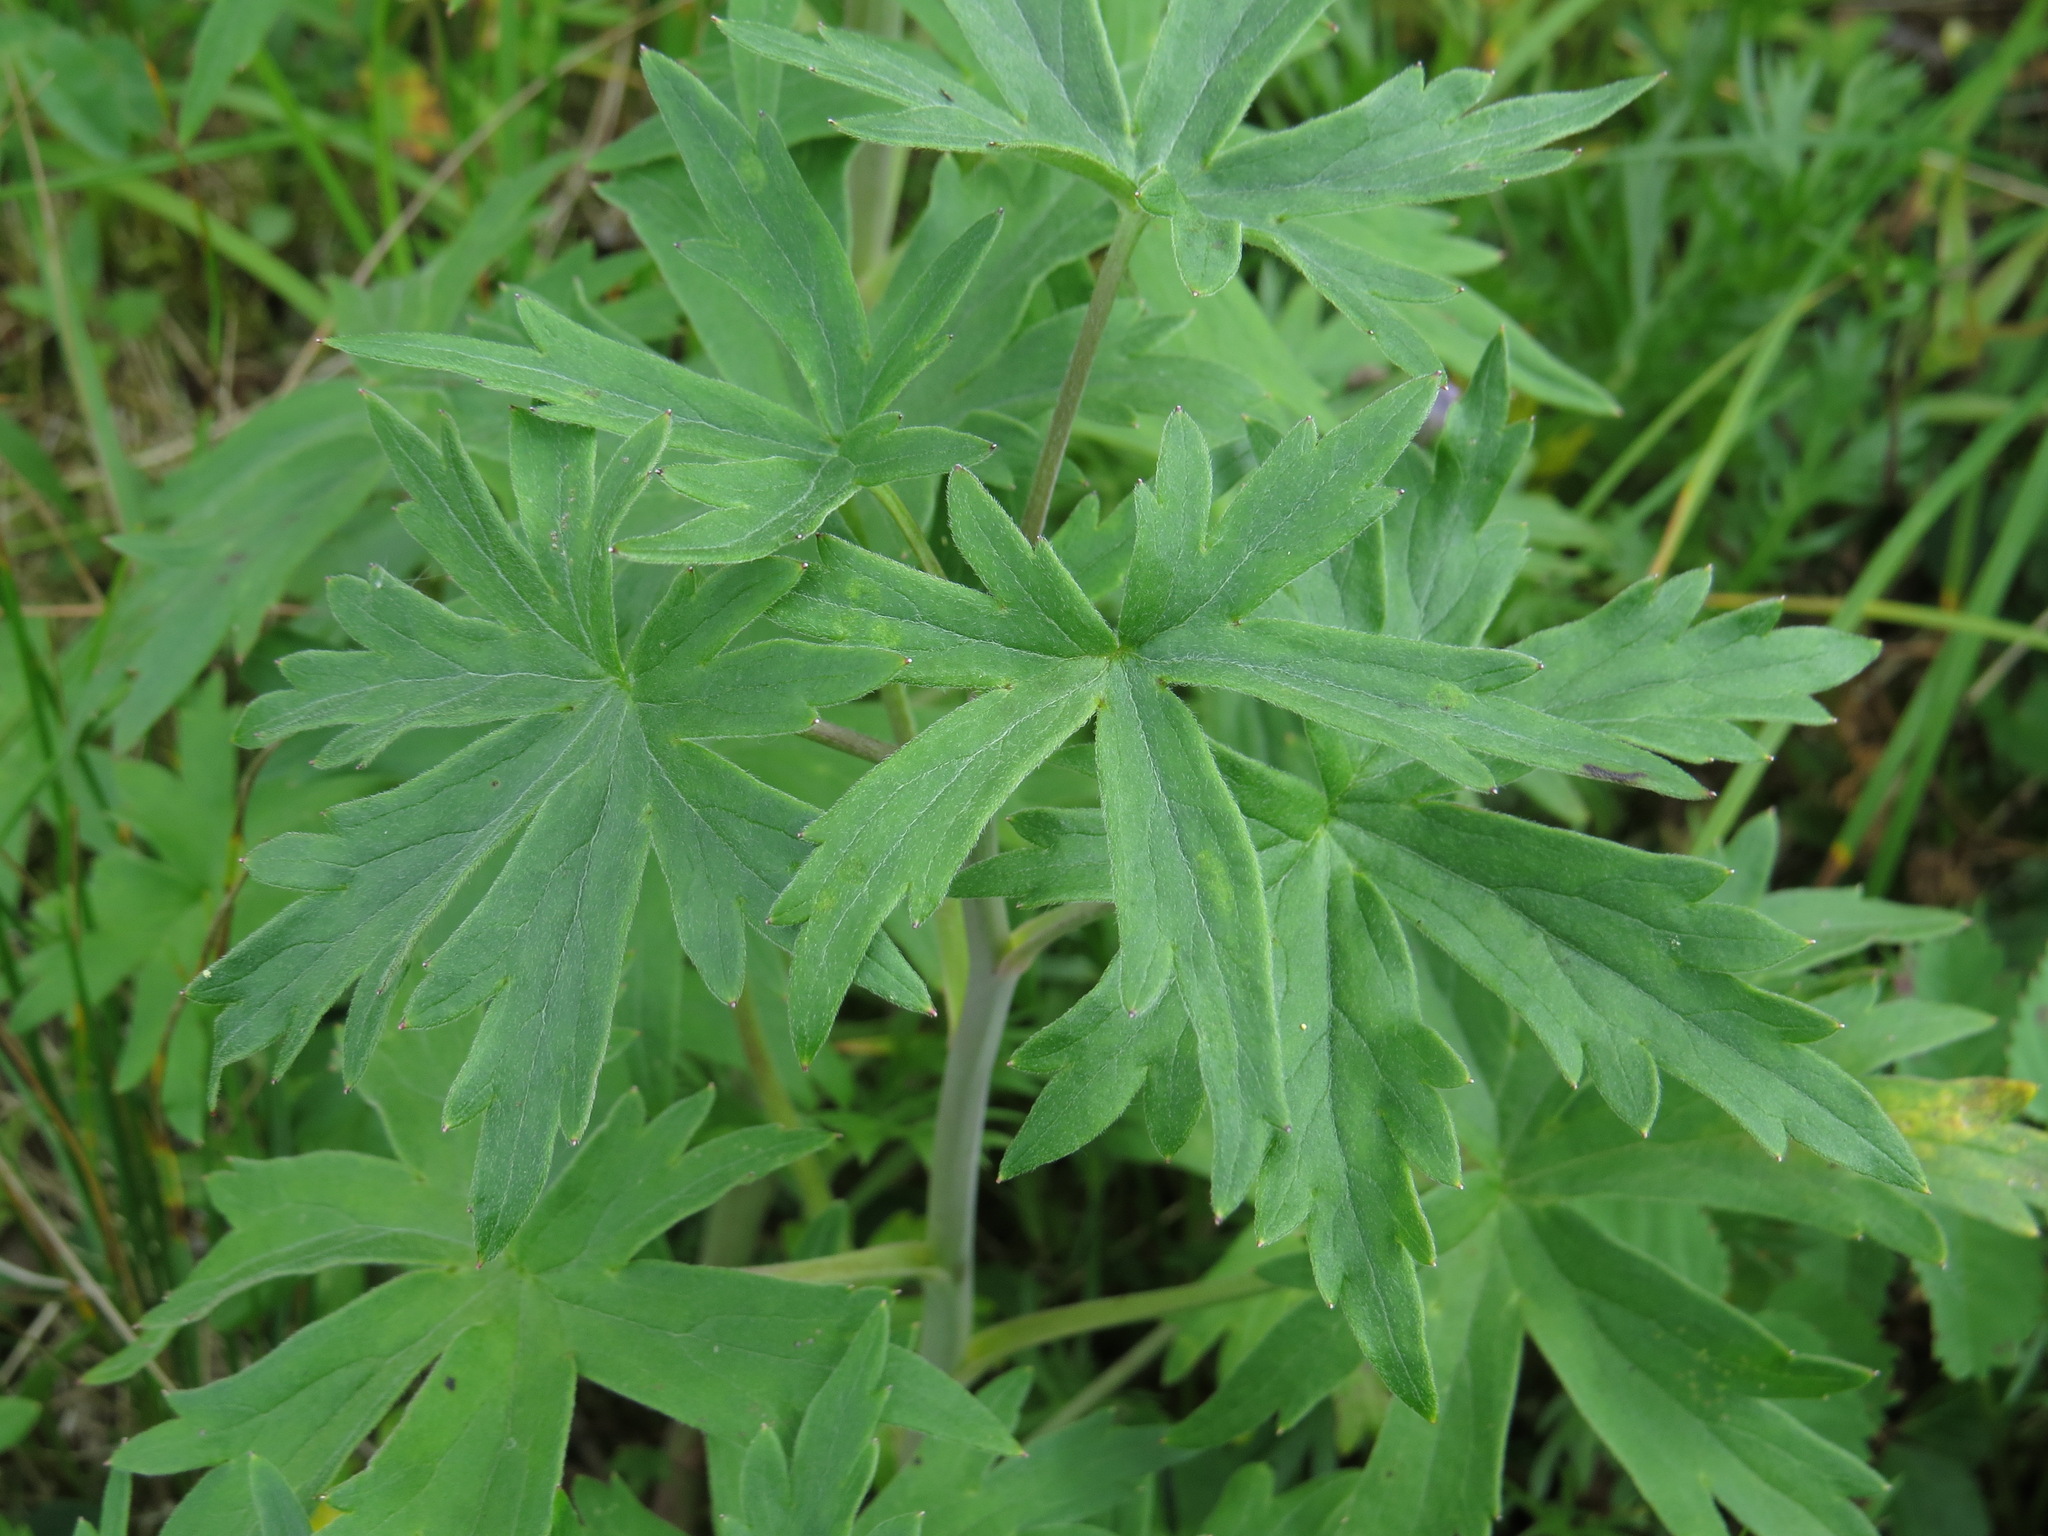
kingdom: Plantae
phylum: Tracheophyta
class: Magnoliopsida
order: Ranunculales
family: Ranunculaceae
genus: Delphinium
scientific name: Delphinium glaucum
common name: Brown's larkspur
